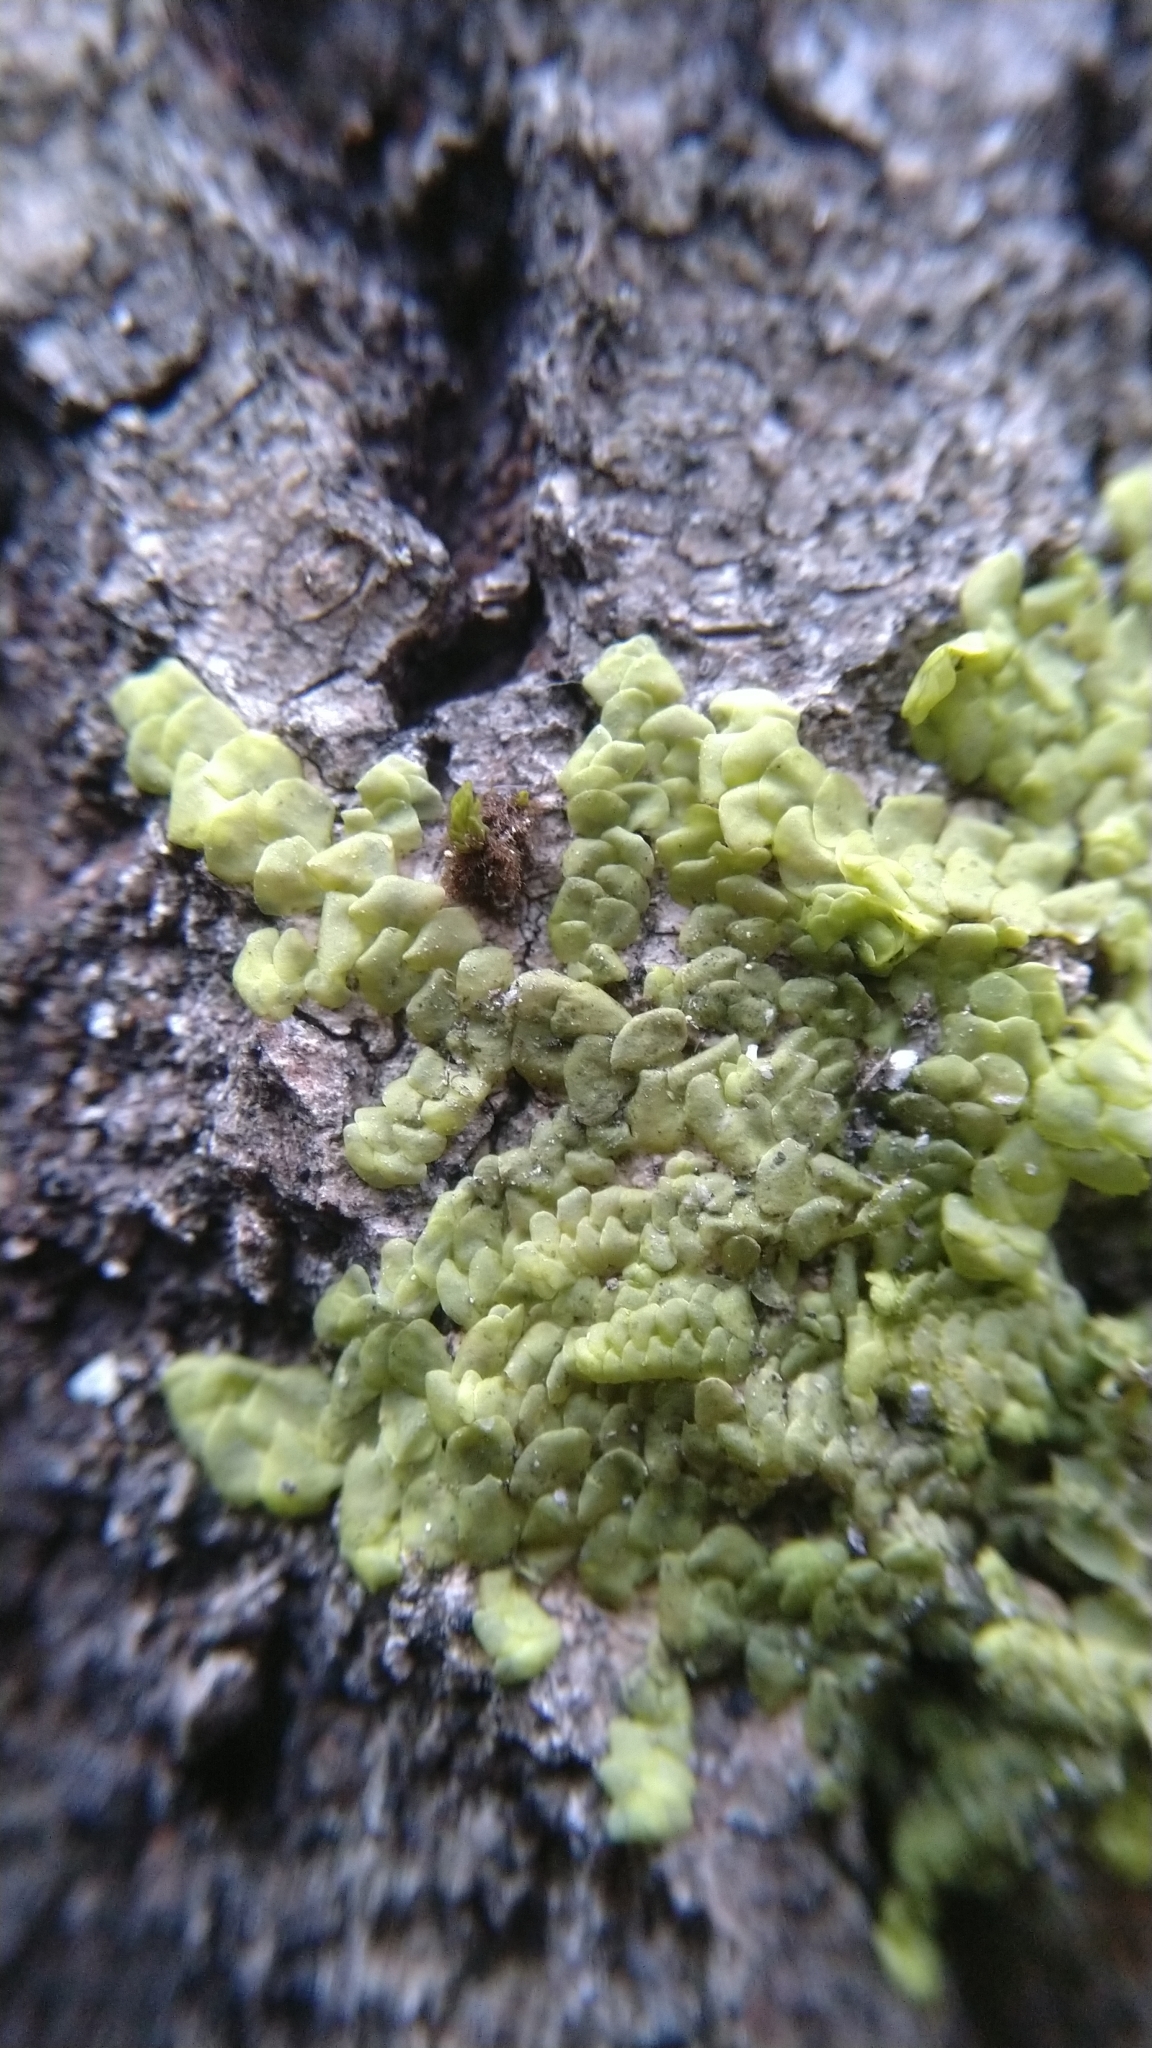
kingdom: Plantae
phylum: Marchantiophyta
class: Jungermanniopsida
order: Porellales
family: Radulaceae
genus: Radula
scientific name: Radula complanata
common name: Flat-leaved scalewort
